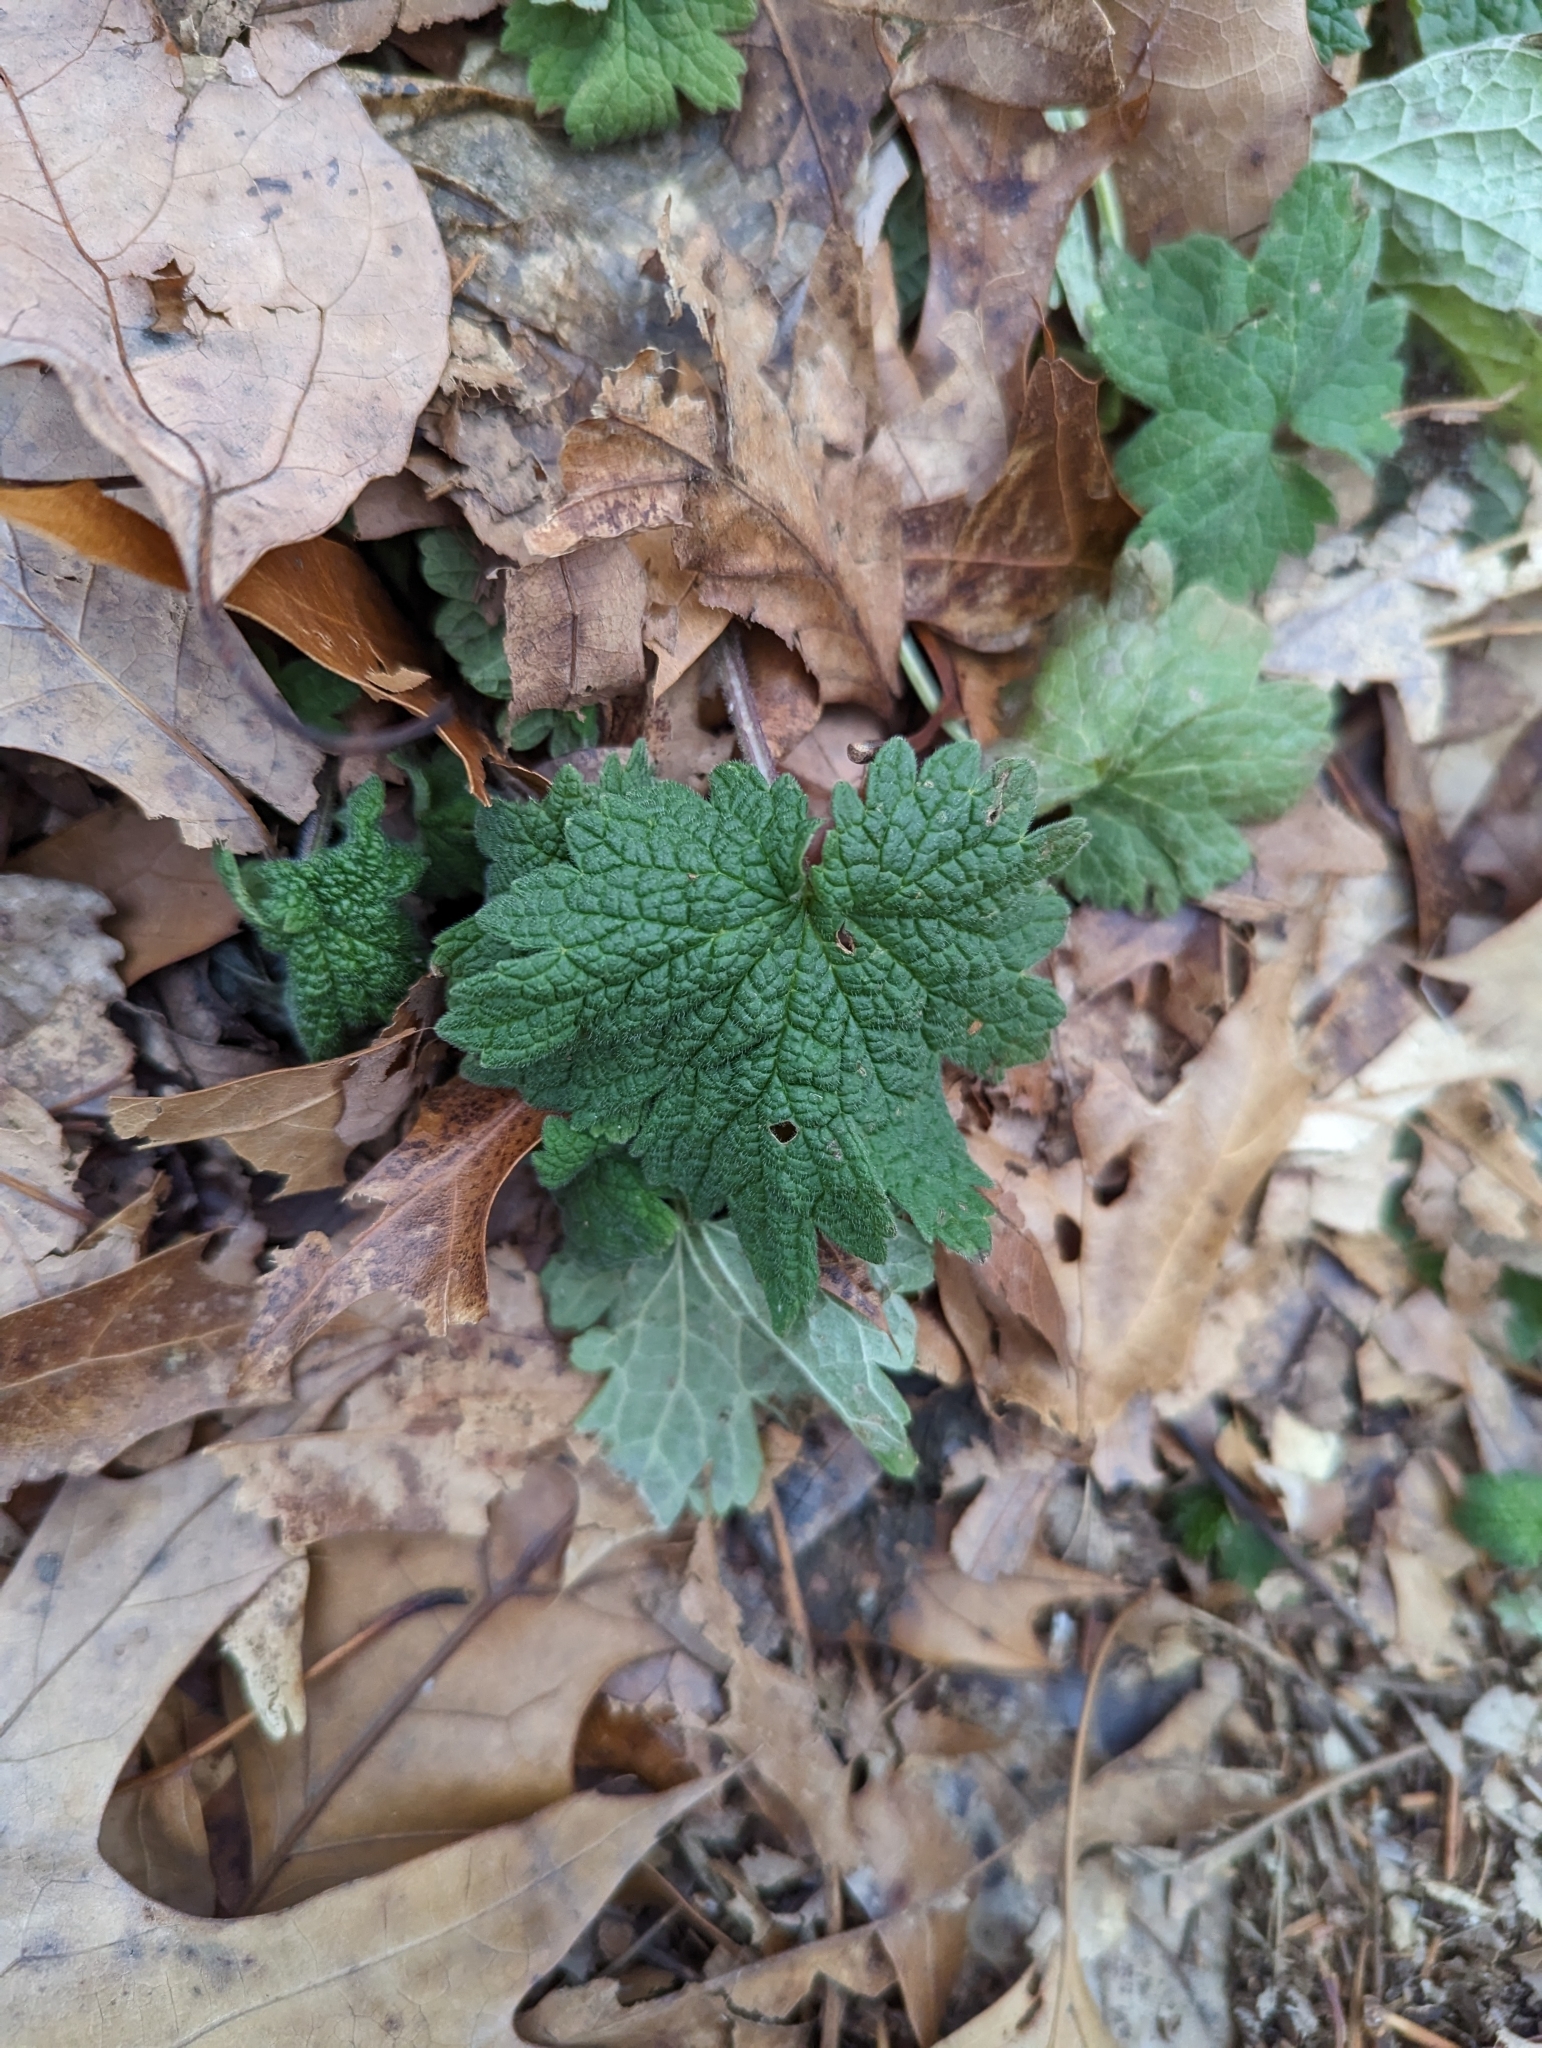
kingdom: Plantae
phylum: Tracheophyta
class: Magnoliopsida
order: Lamiales
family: Lamiaceae
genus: Leonurus
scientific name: Leonurus cardiaca
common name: Motherwort
